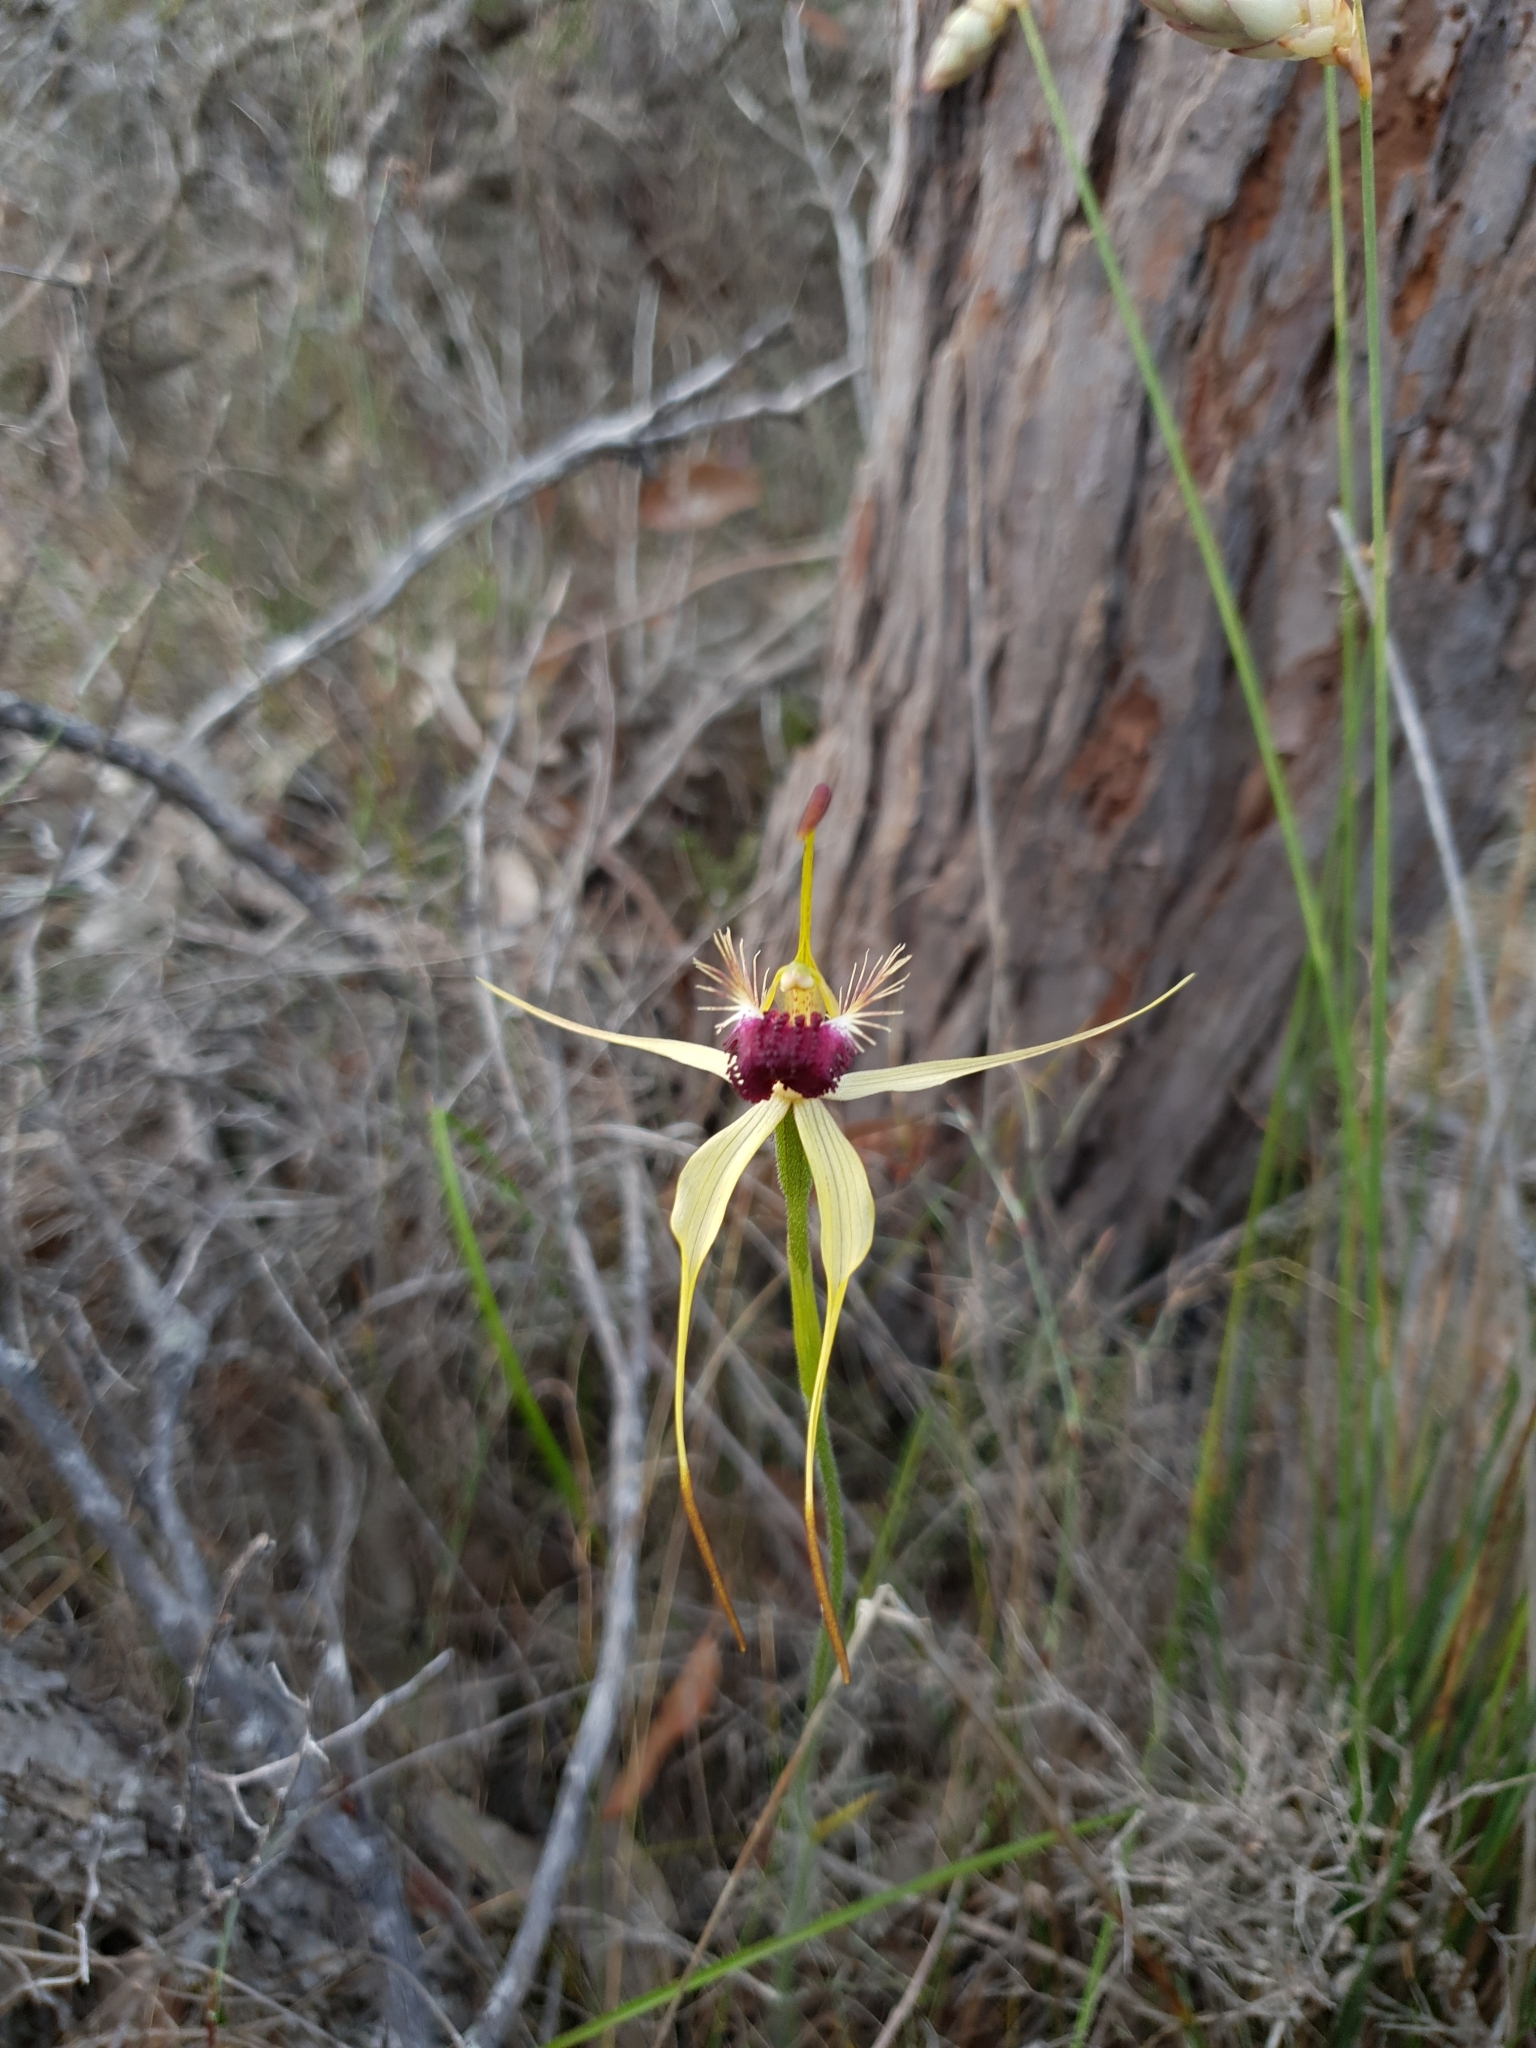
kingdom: Plantae
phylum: Tracheophyta
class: Liliopsida
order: Asparagales
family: Orchidaceae
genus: Caladenia
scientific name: Caladenia thinicola
